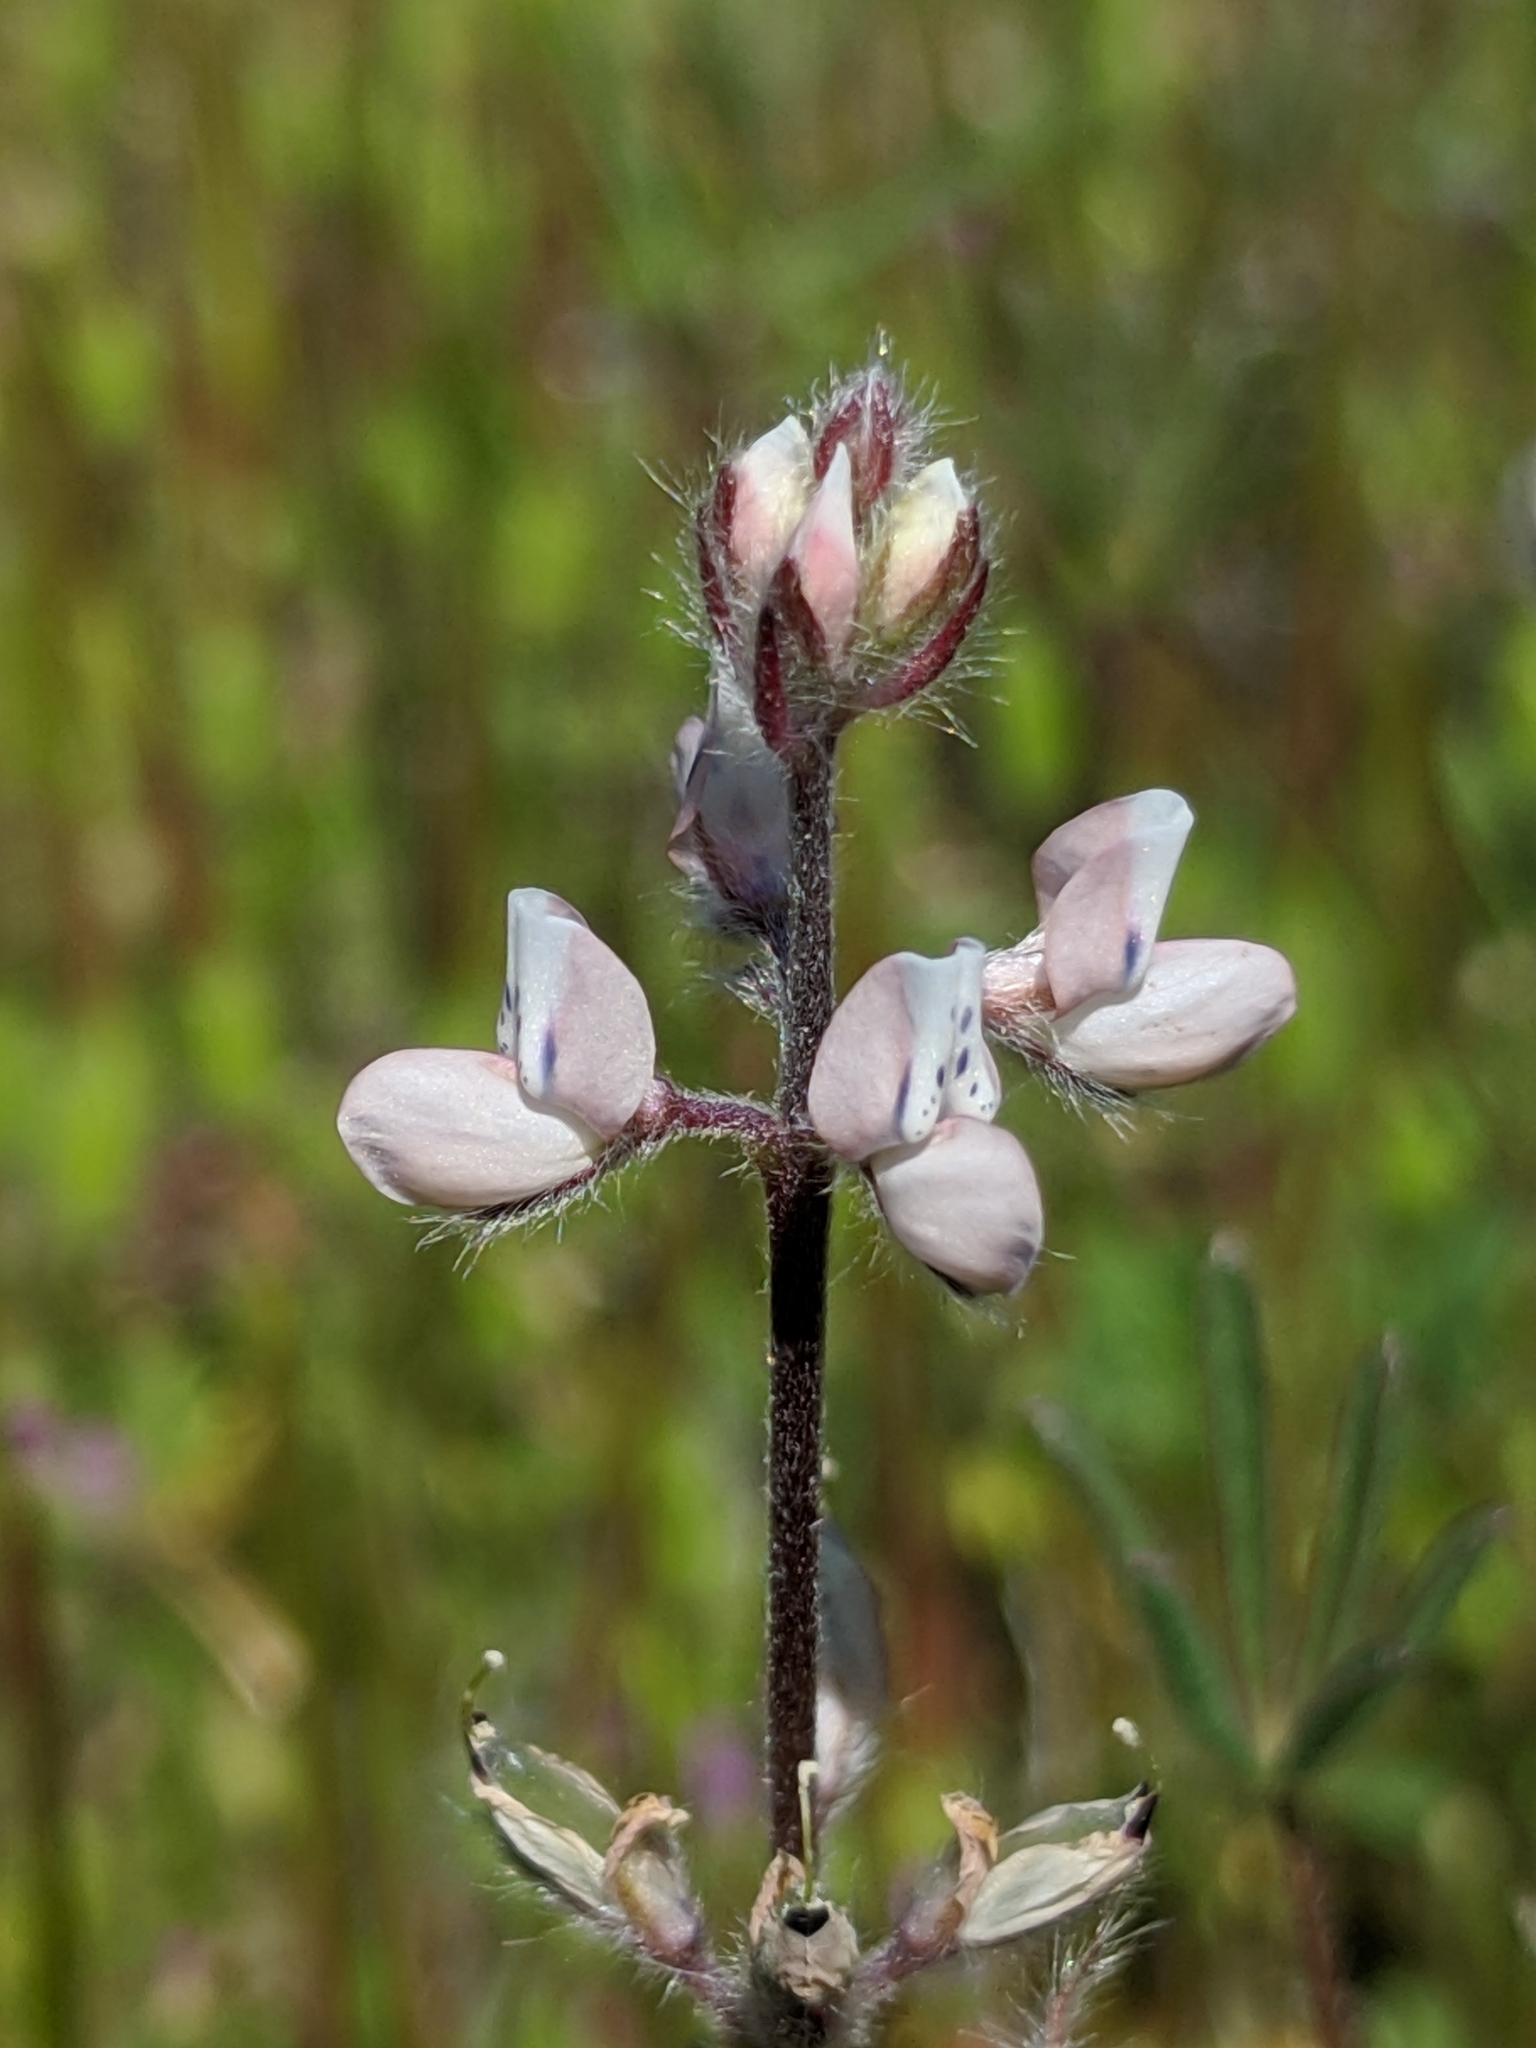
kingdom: Plantae
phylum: Tracheophyta
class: Magnoliopsida
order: Fabales
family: Fabaceae
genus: Lupinus
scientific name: Lupinus bicolor
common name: Miniature lupine
